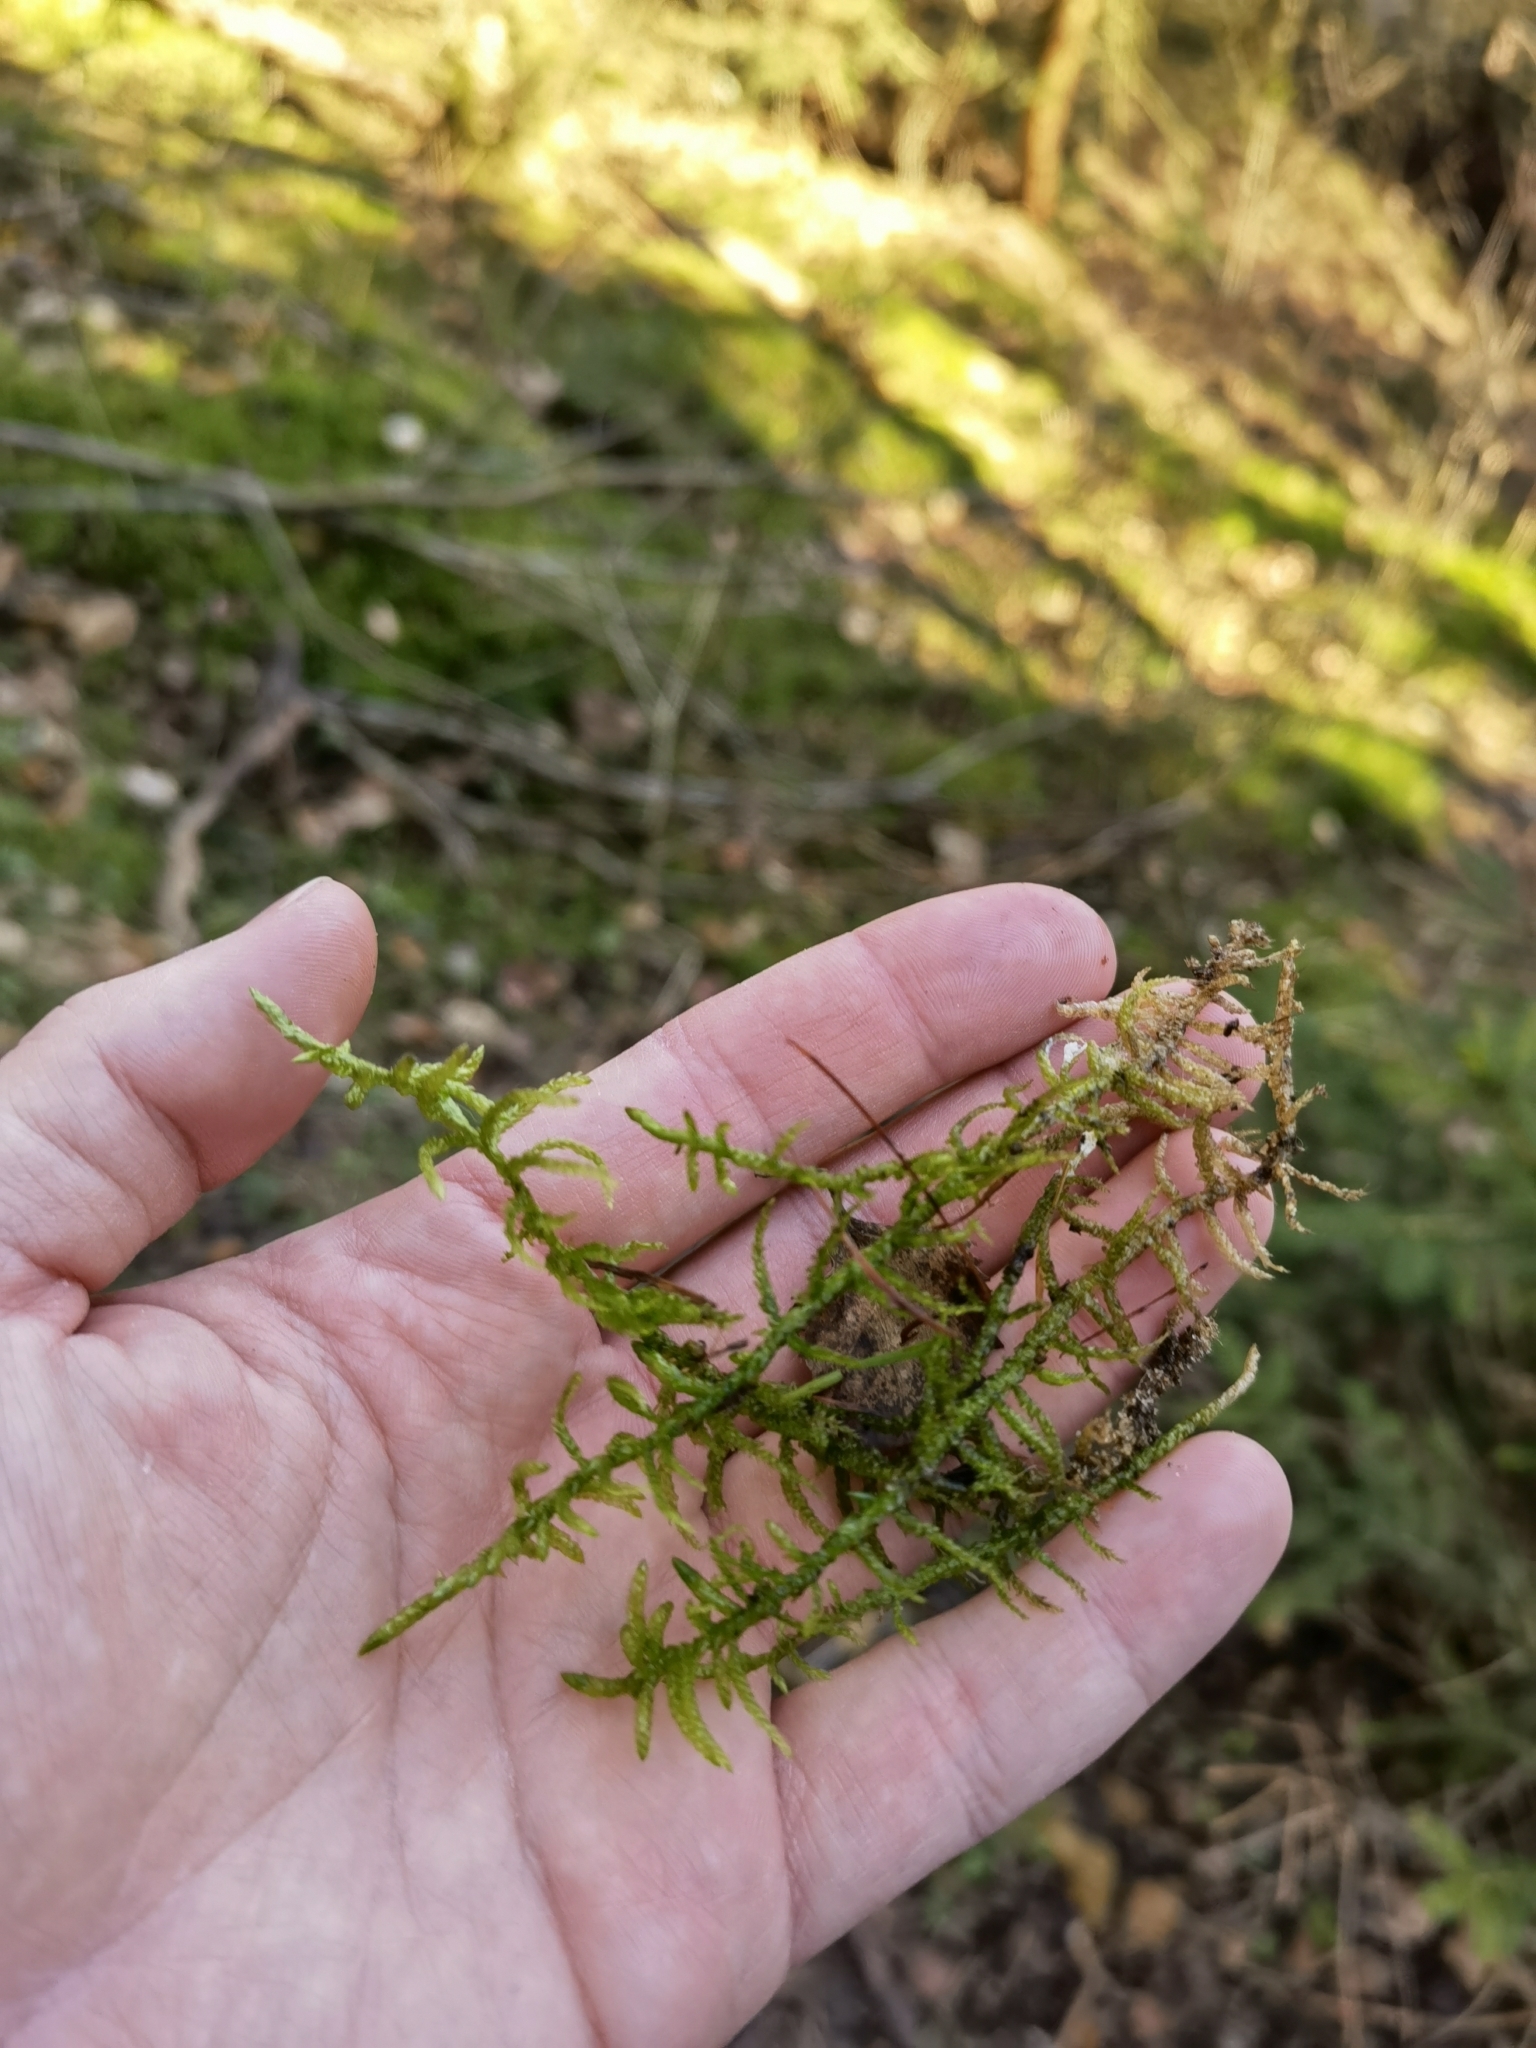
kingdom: Plantae
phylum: Bryophyta
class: Bryopsida
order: Hypnales
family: Brachytheciaceae
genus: Pseudoscleropodium
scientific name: Pseudoscleropodium purum
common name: Neat feather-moss
